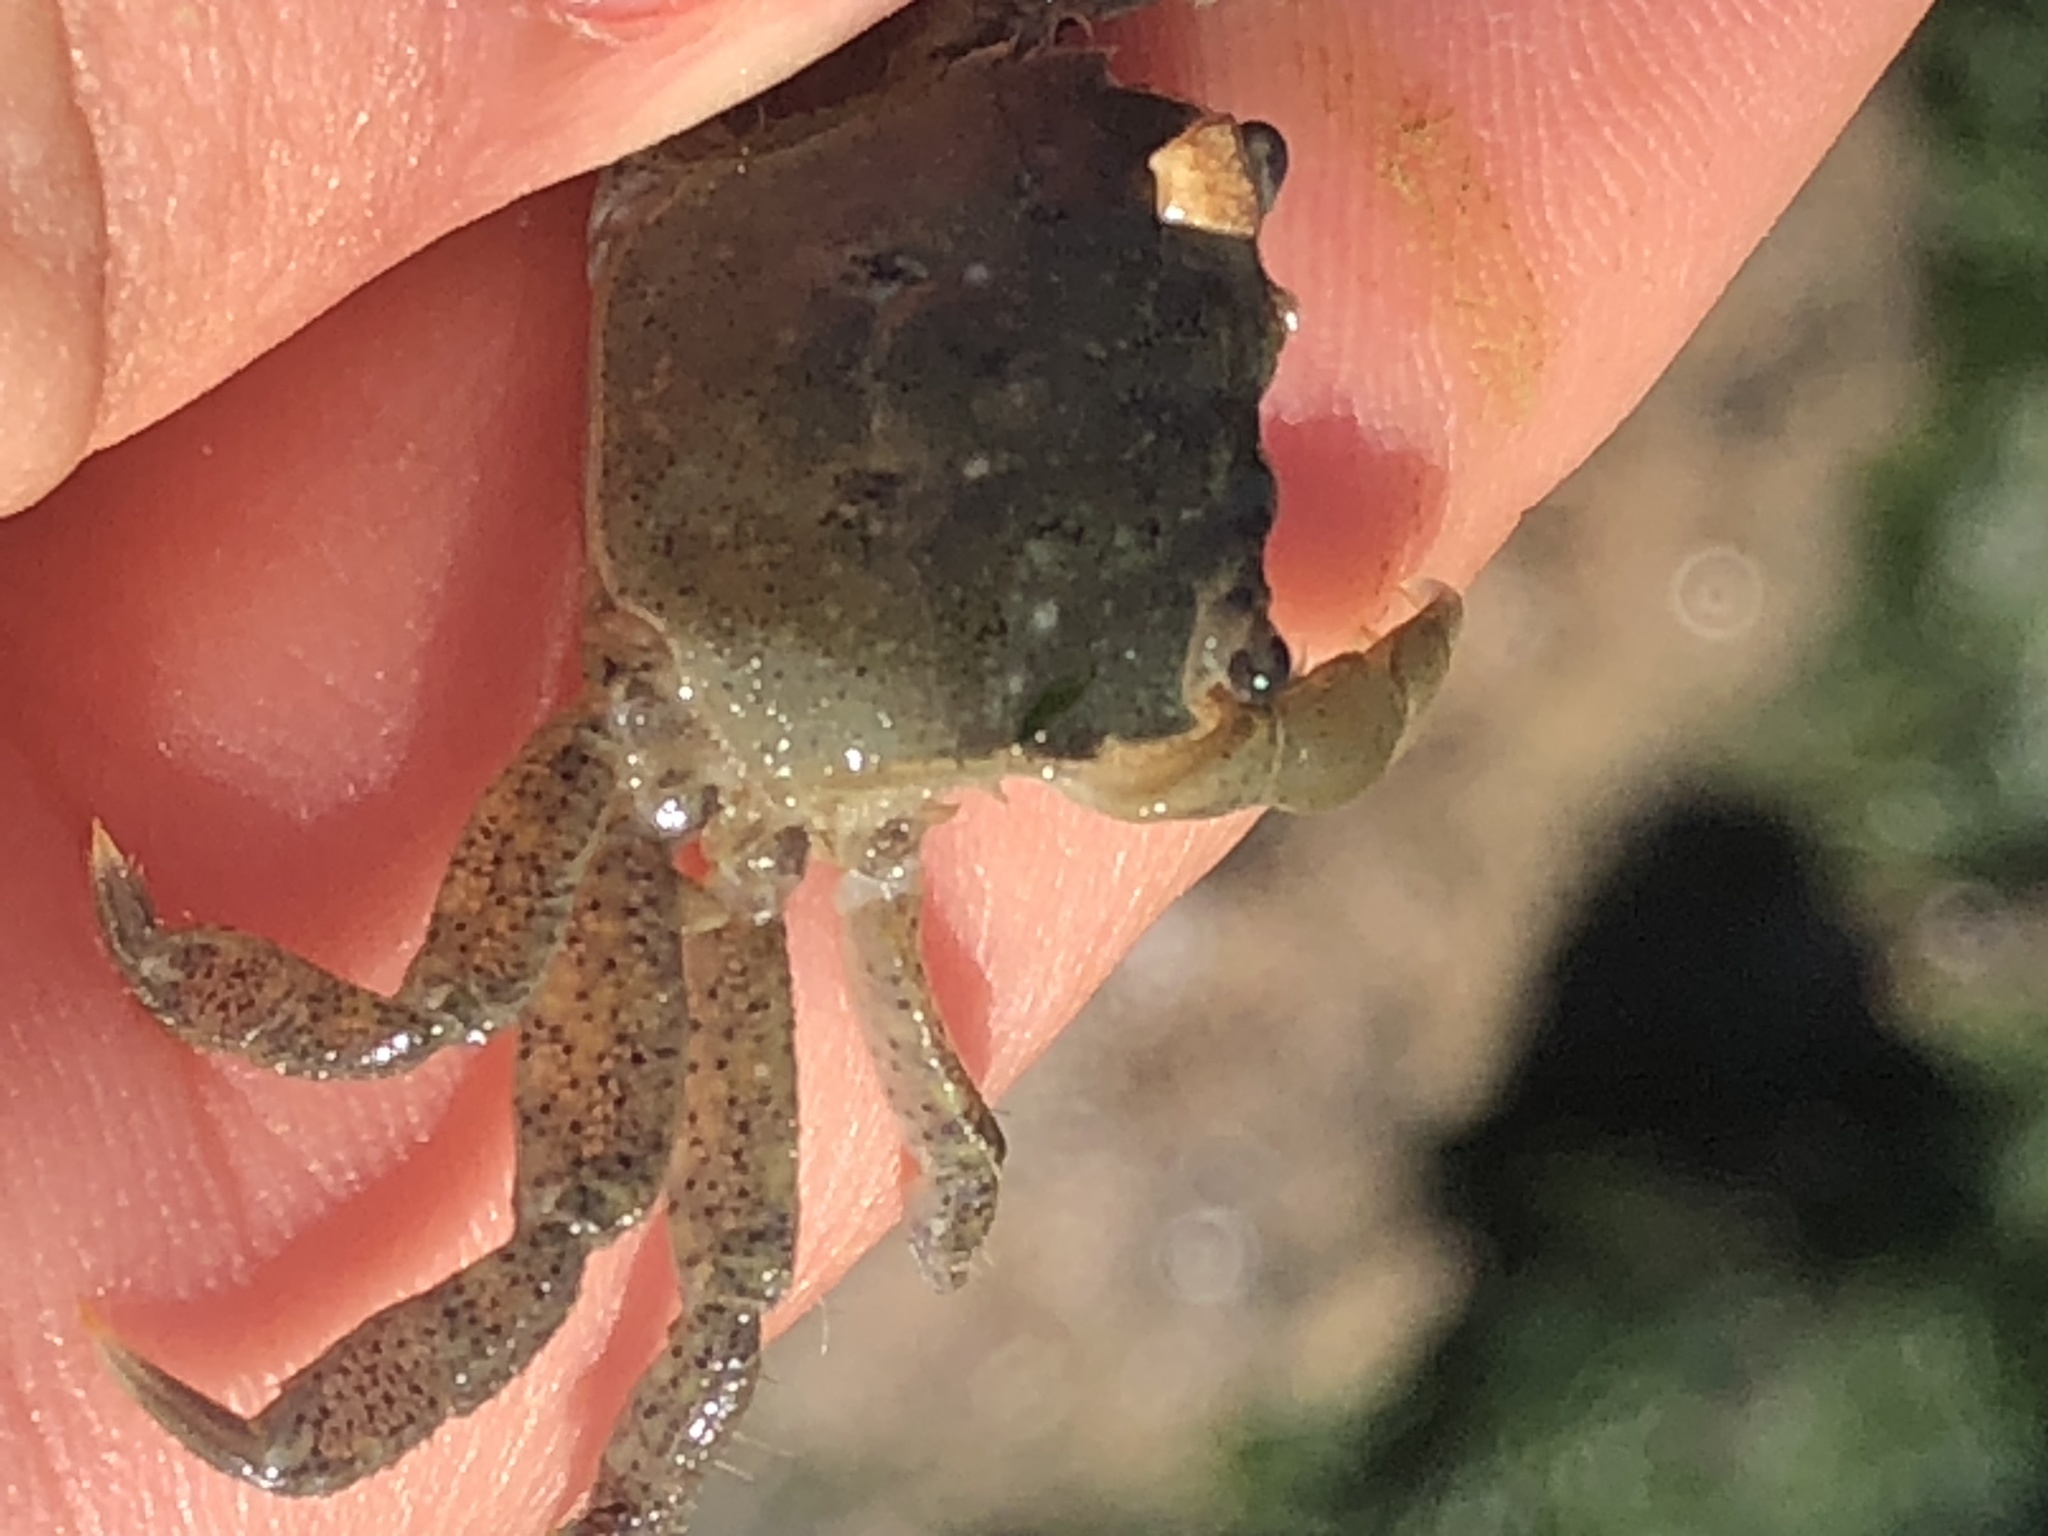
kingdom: Animalia
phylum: Arthropoda
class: Malacostraca
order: Decapoda
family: Varunidae
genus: Hemigrapsus
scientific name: Hemigrapsus oregonensis
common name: Yellow shore crab
